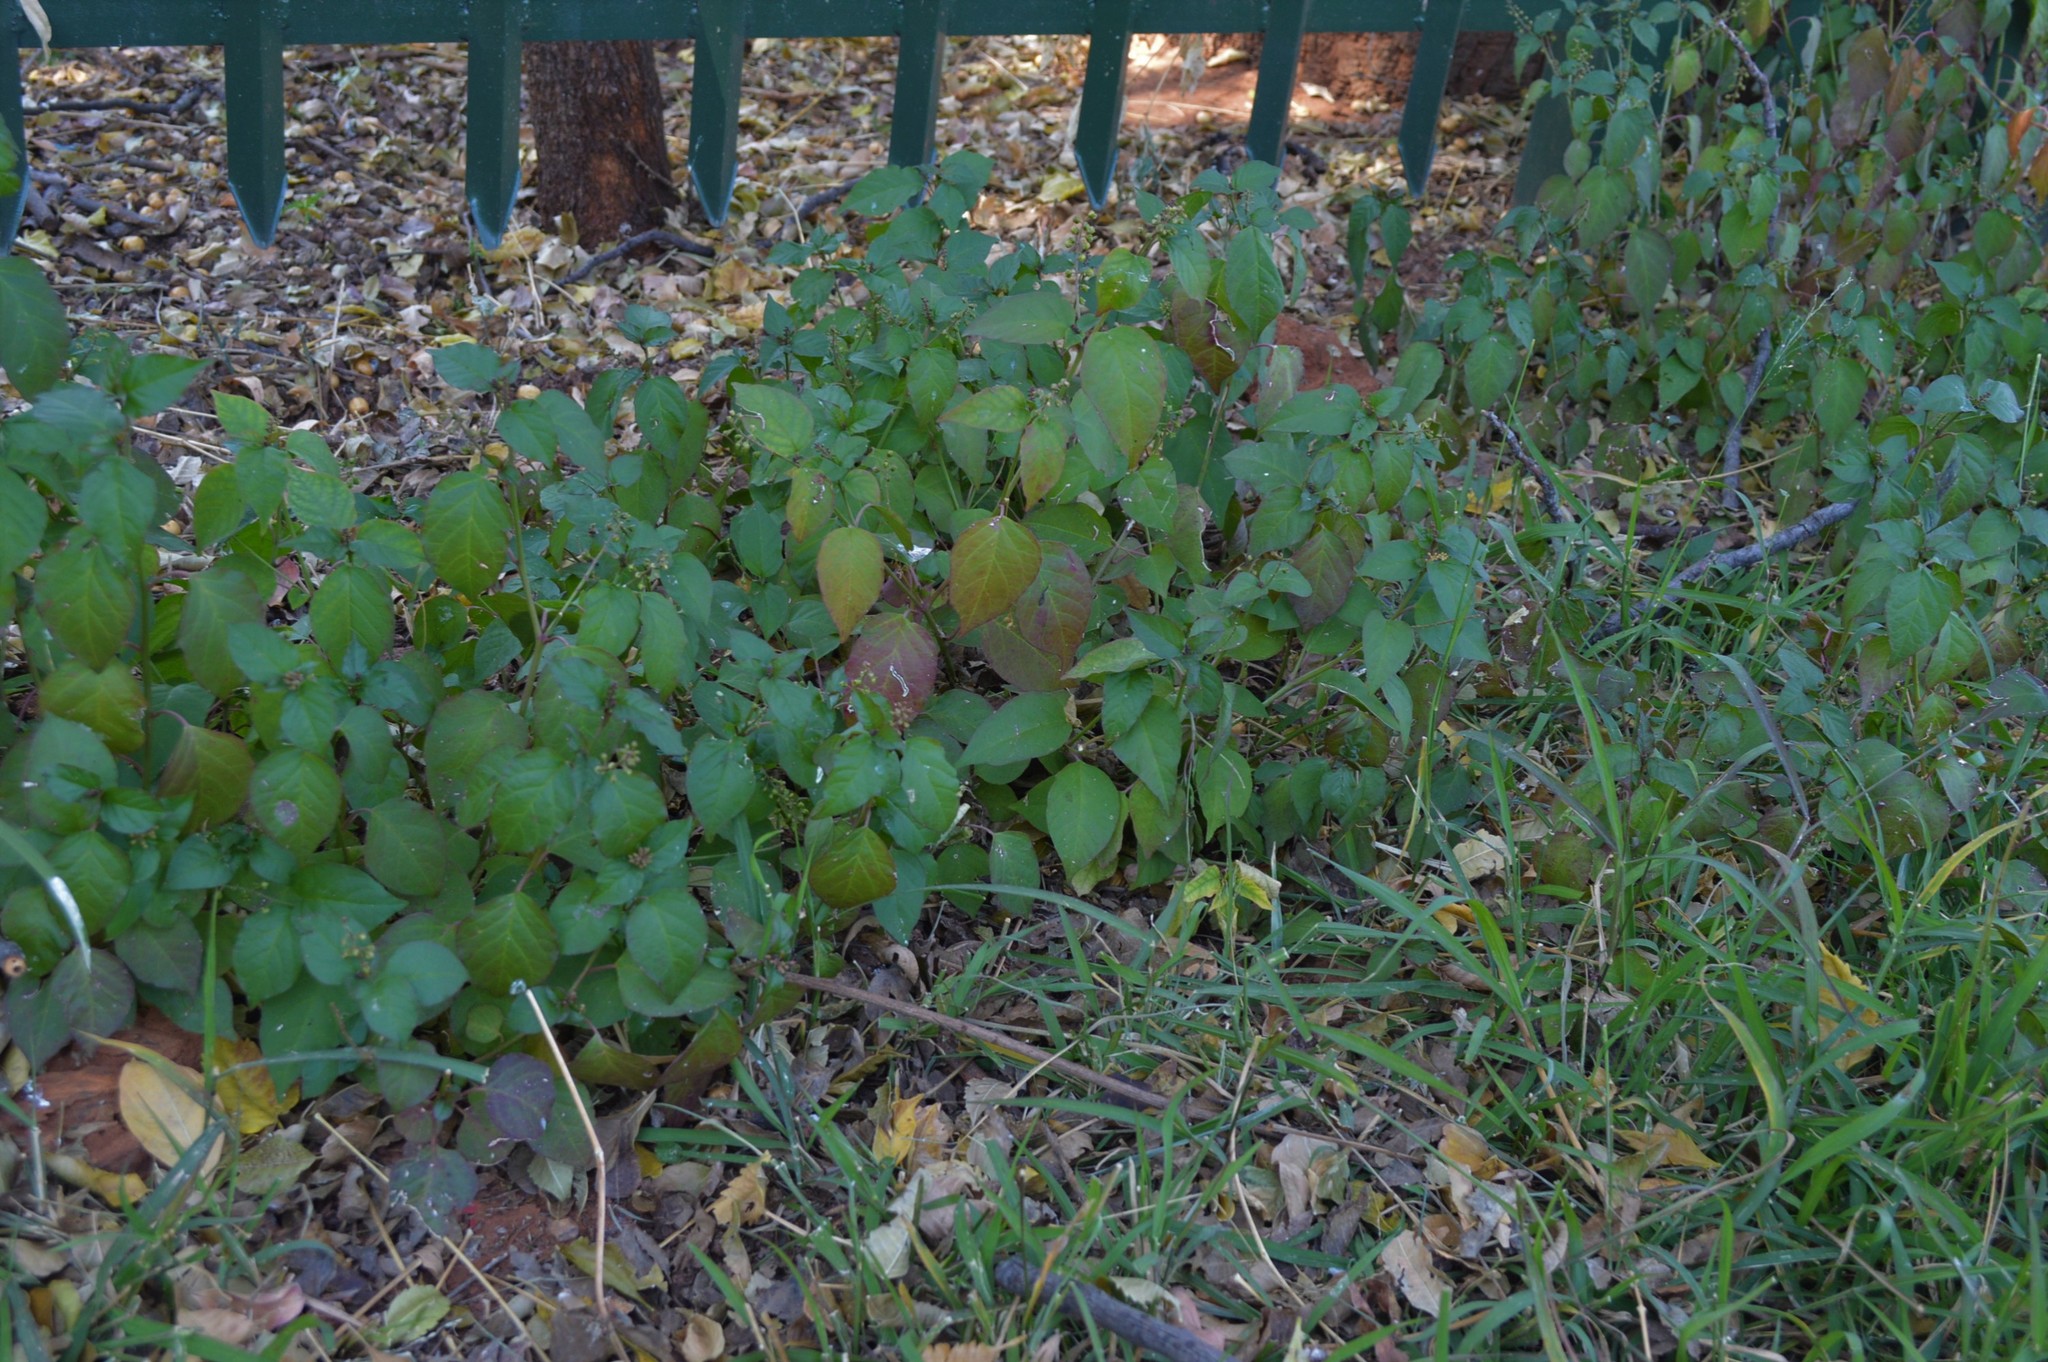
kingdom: Plantae
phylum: Tracheophyta
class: Magnoliopsida
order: Caryophyllales
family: Phytolaccaceae
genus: Rivina
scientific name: Rivina humilis
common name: Rougeplant
